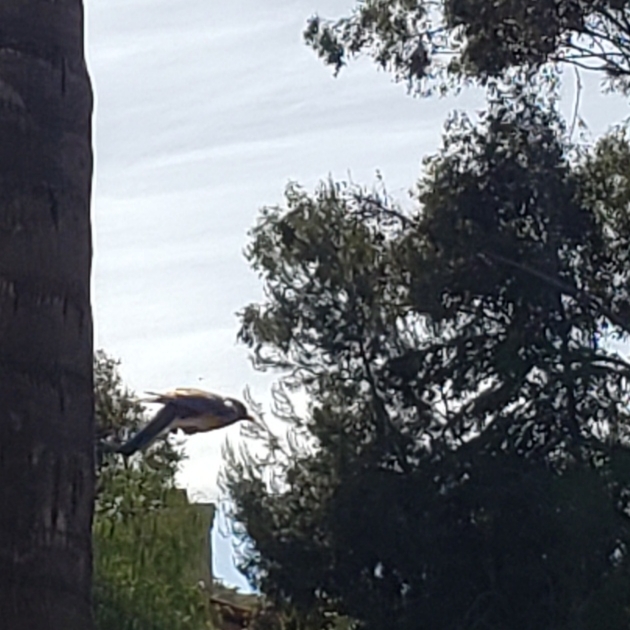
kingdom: Animalia
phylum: Chordata
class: Aves
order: Passeriformes
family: Turdidae
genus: Sialia
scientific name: Sialia mexicana
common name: Western bluebird
